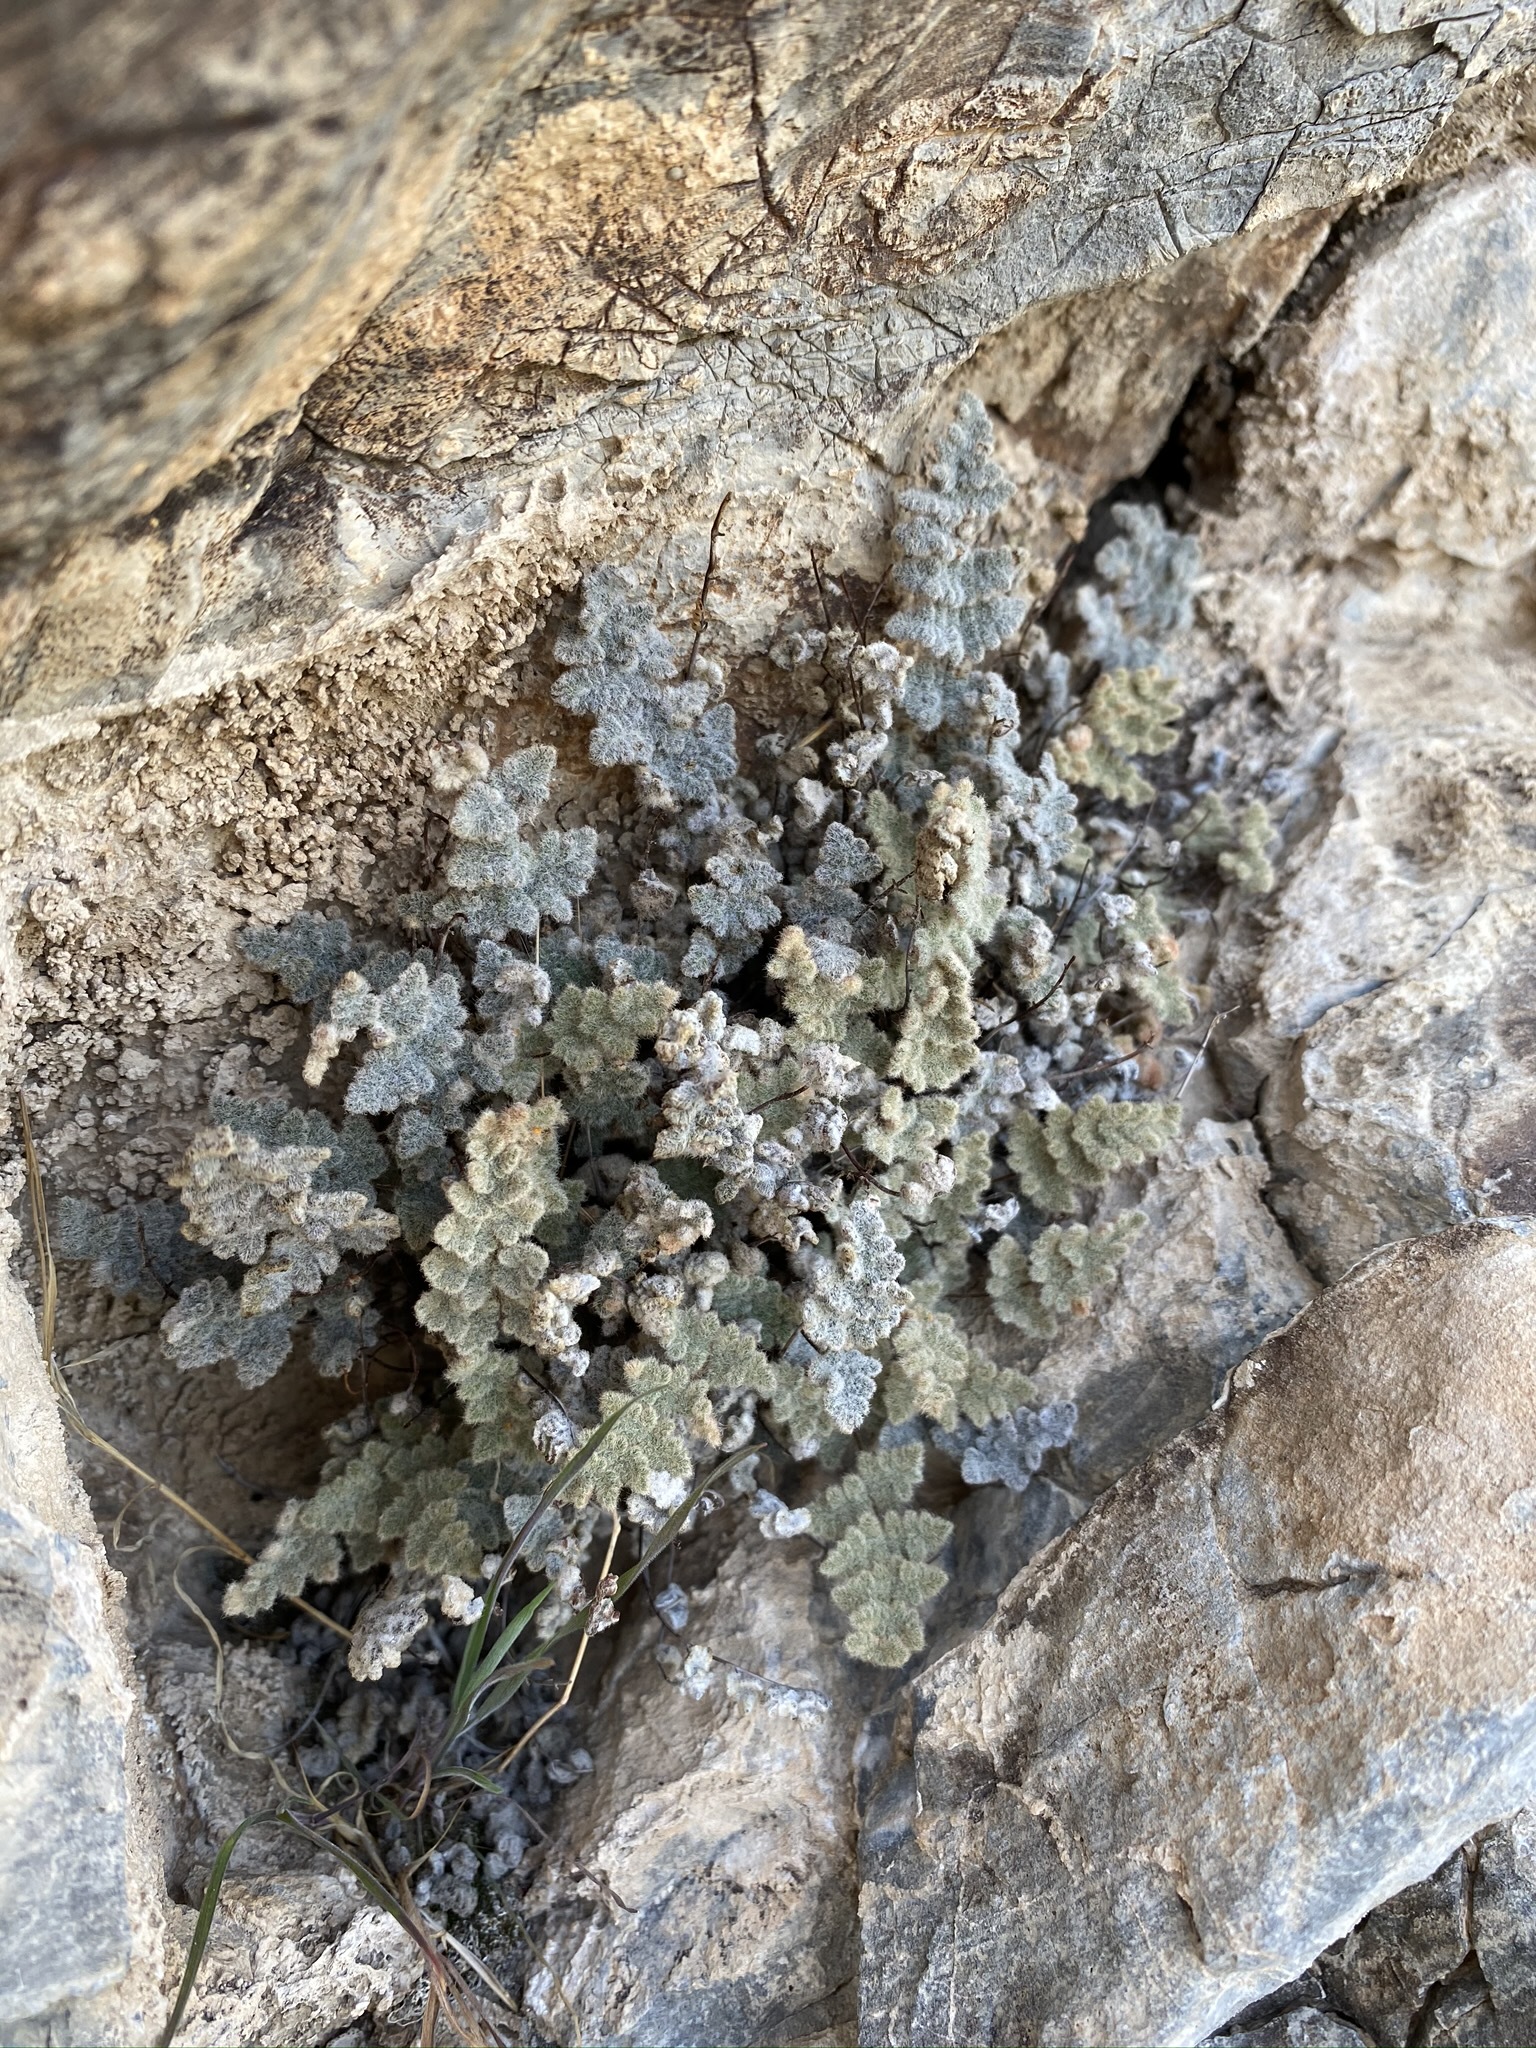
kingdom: Plantae
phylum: Tracheophyta
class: Polypodiopsida
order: Polypodiales
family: Pteridaceae
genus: Myriopteris
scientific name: Myriopteris parryi
